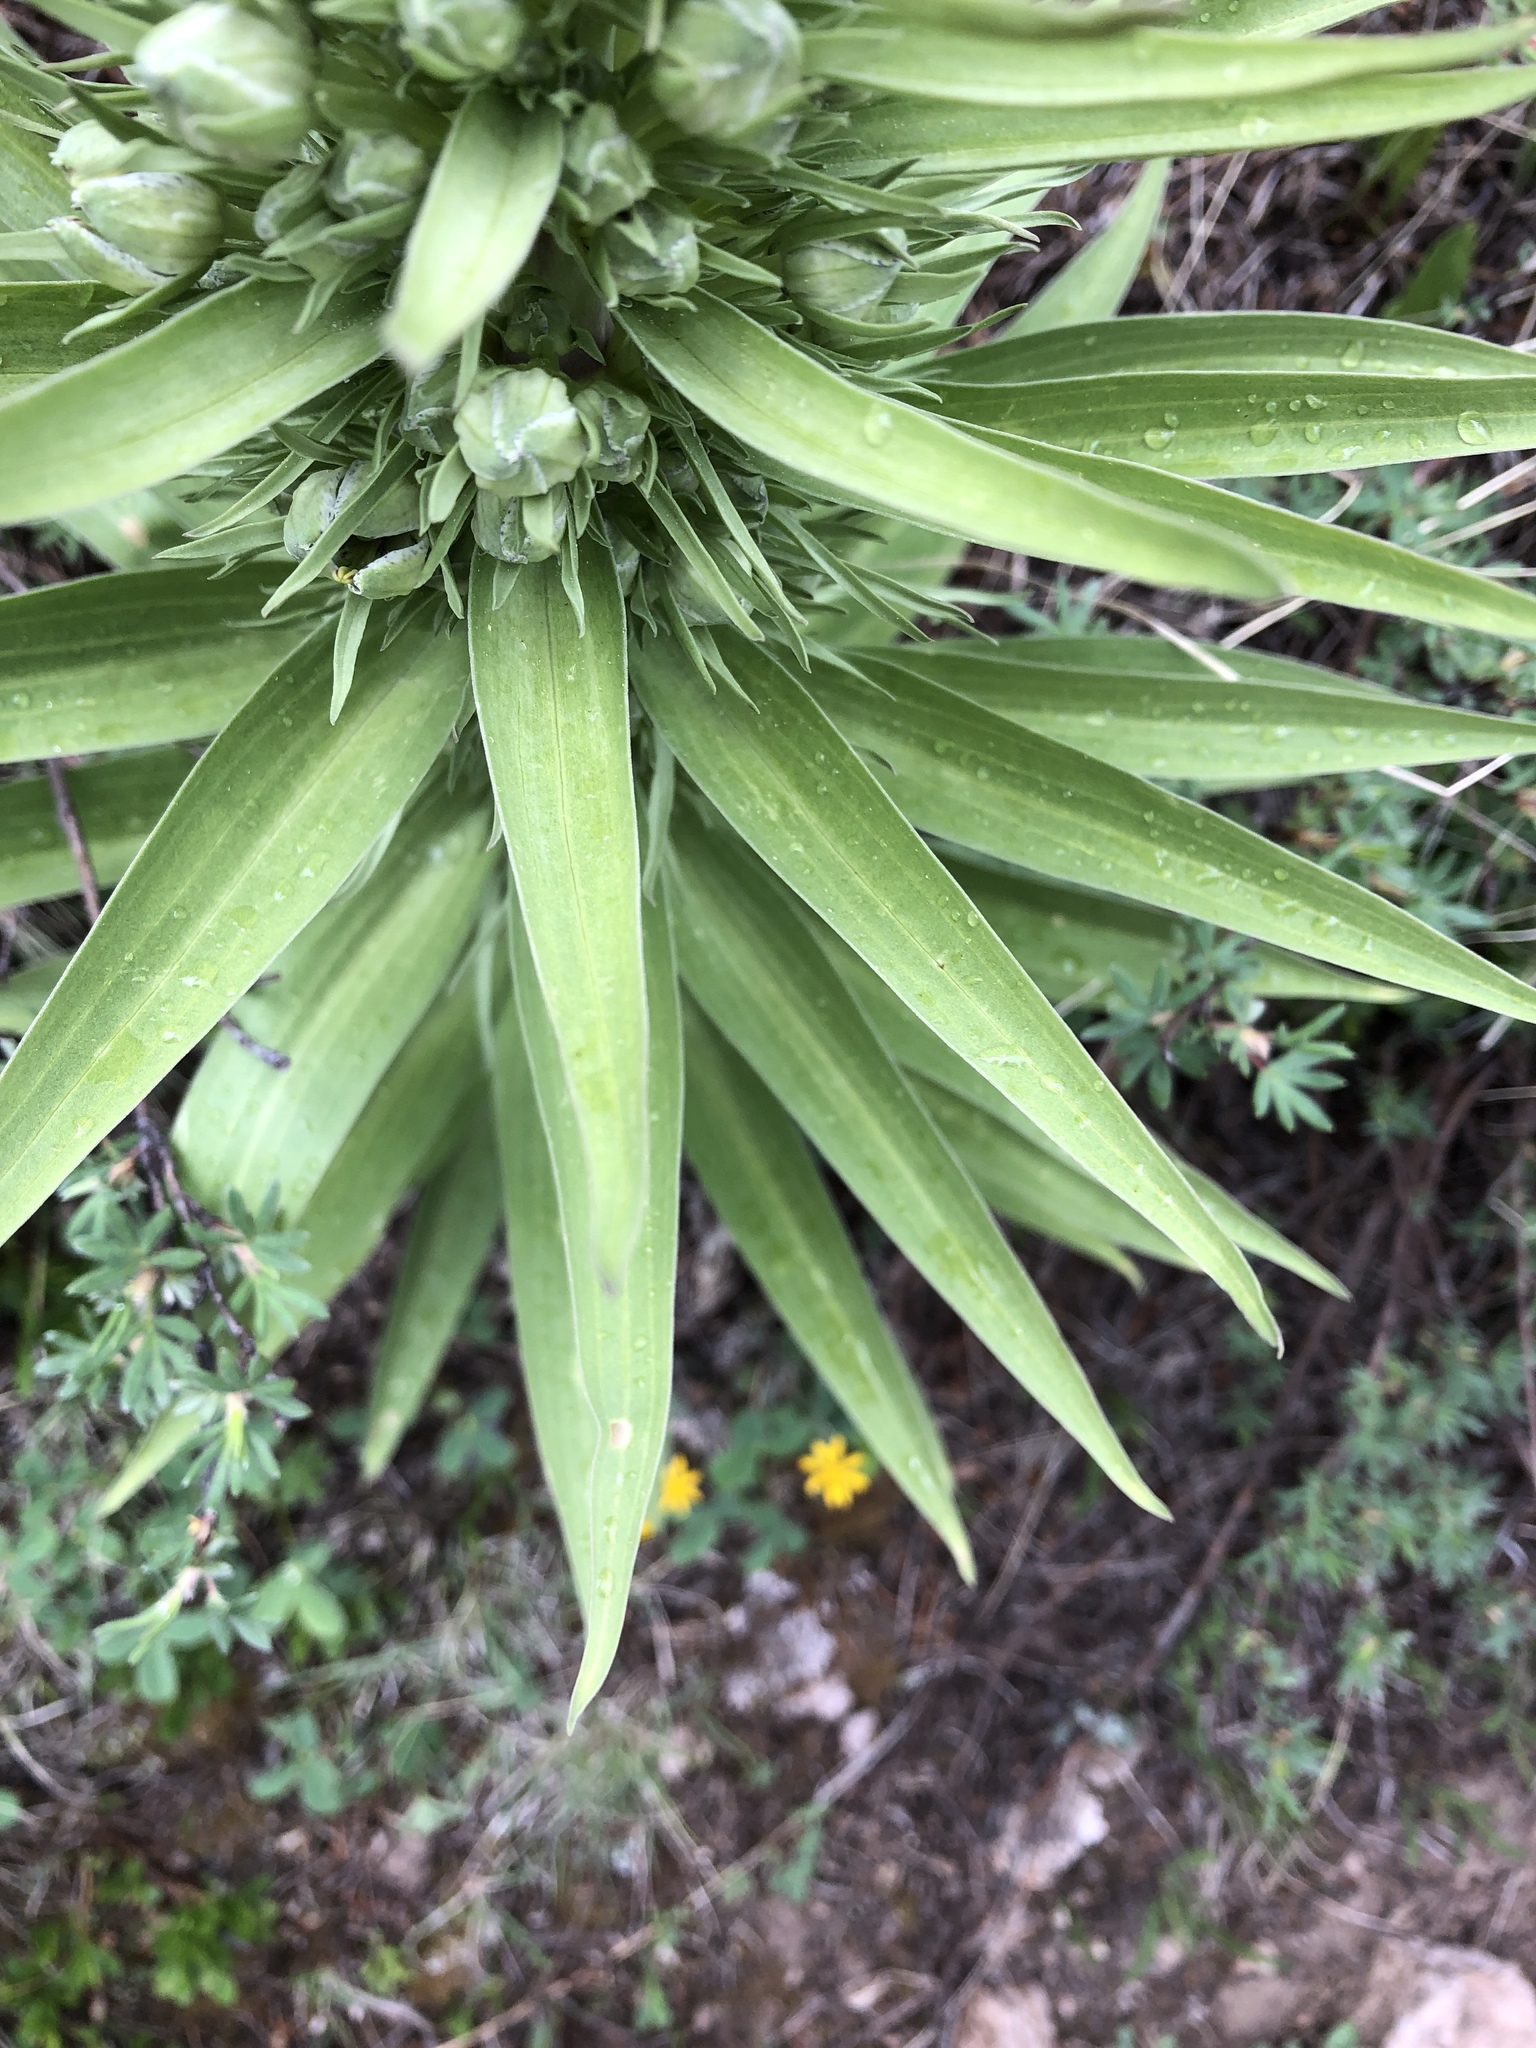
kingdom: Plantae
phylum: Tracheophyta
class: Magnoliopsida
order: Gentianales
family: Gentianaceae
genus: Frasera
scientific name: Frasera speciosa
